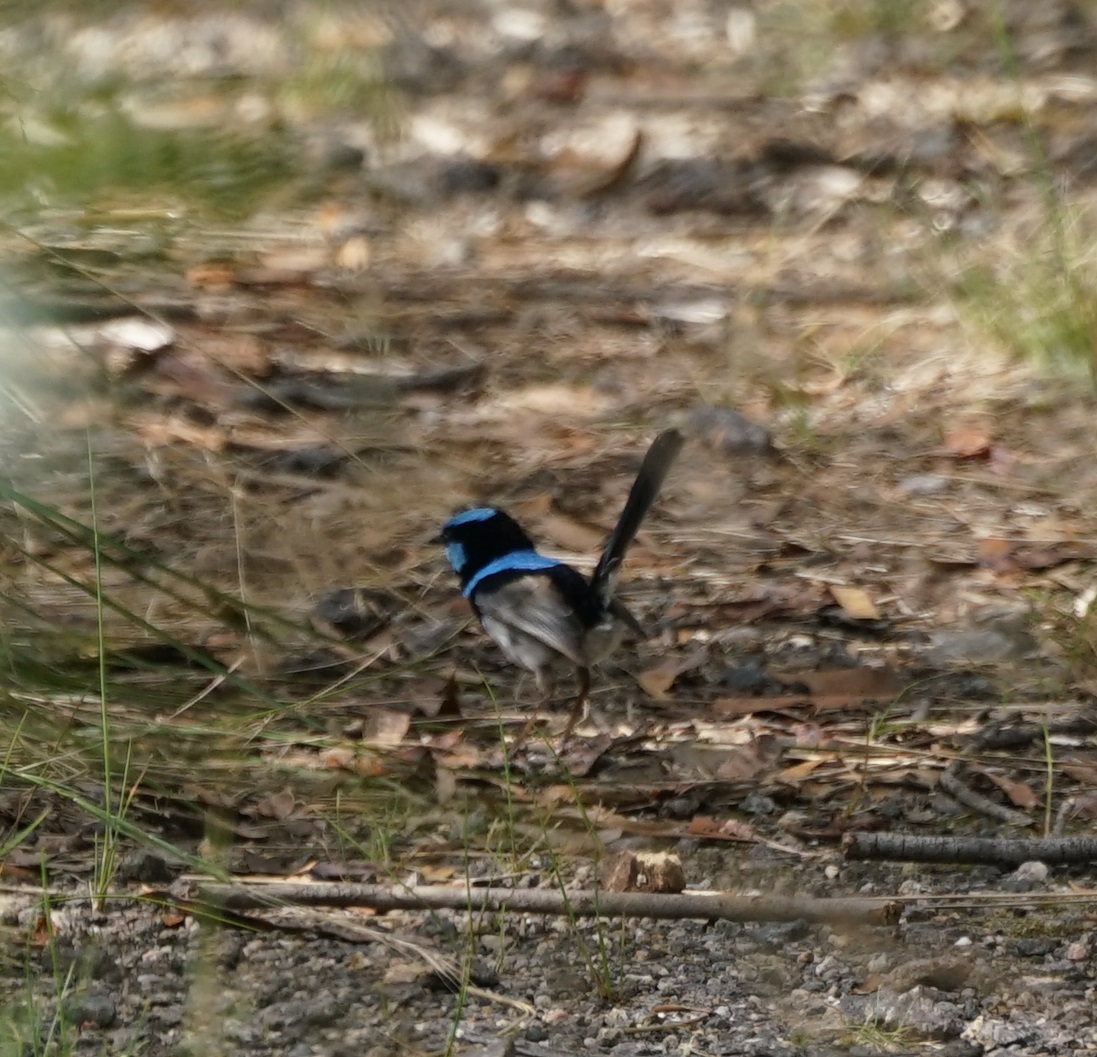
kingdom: Animalia
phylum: Chordata
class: Aves
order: Passeriformes
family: Maluridae
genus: Malurus
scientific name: Malurus cyaneus
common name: Superb fairywren
